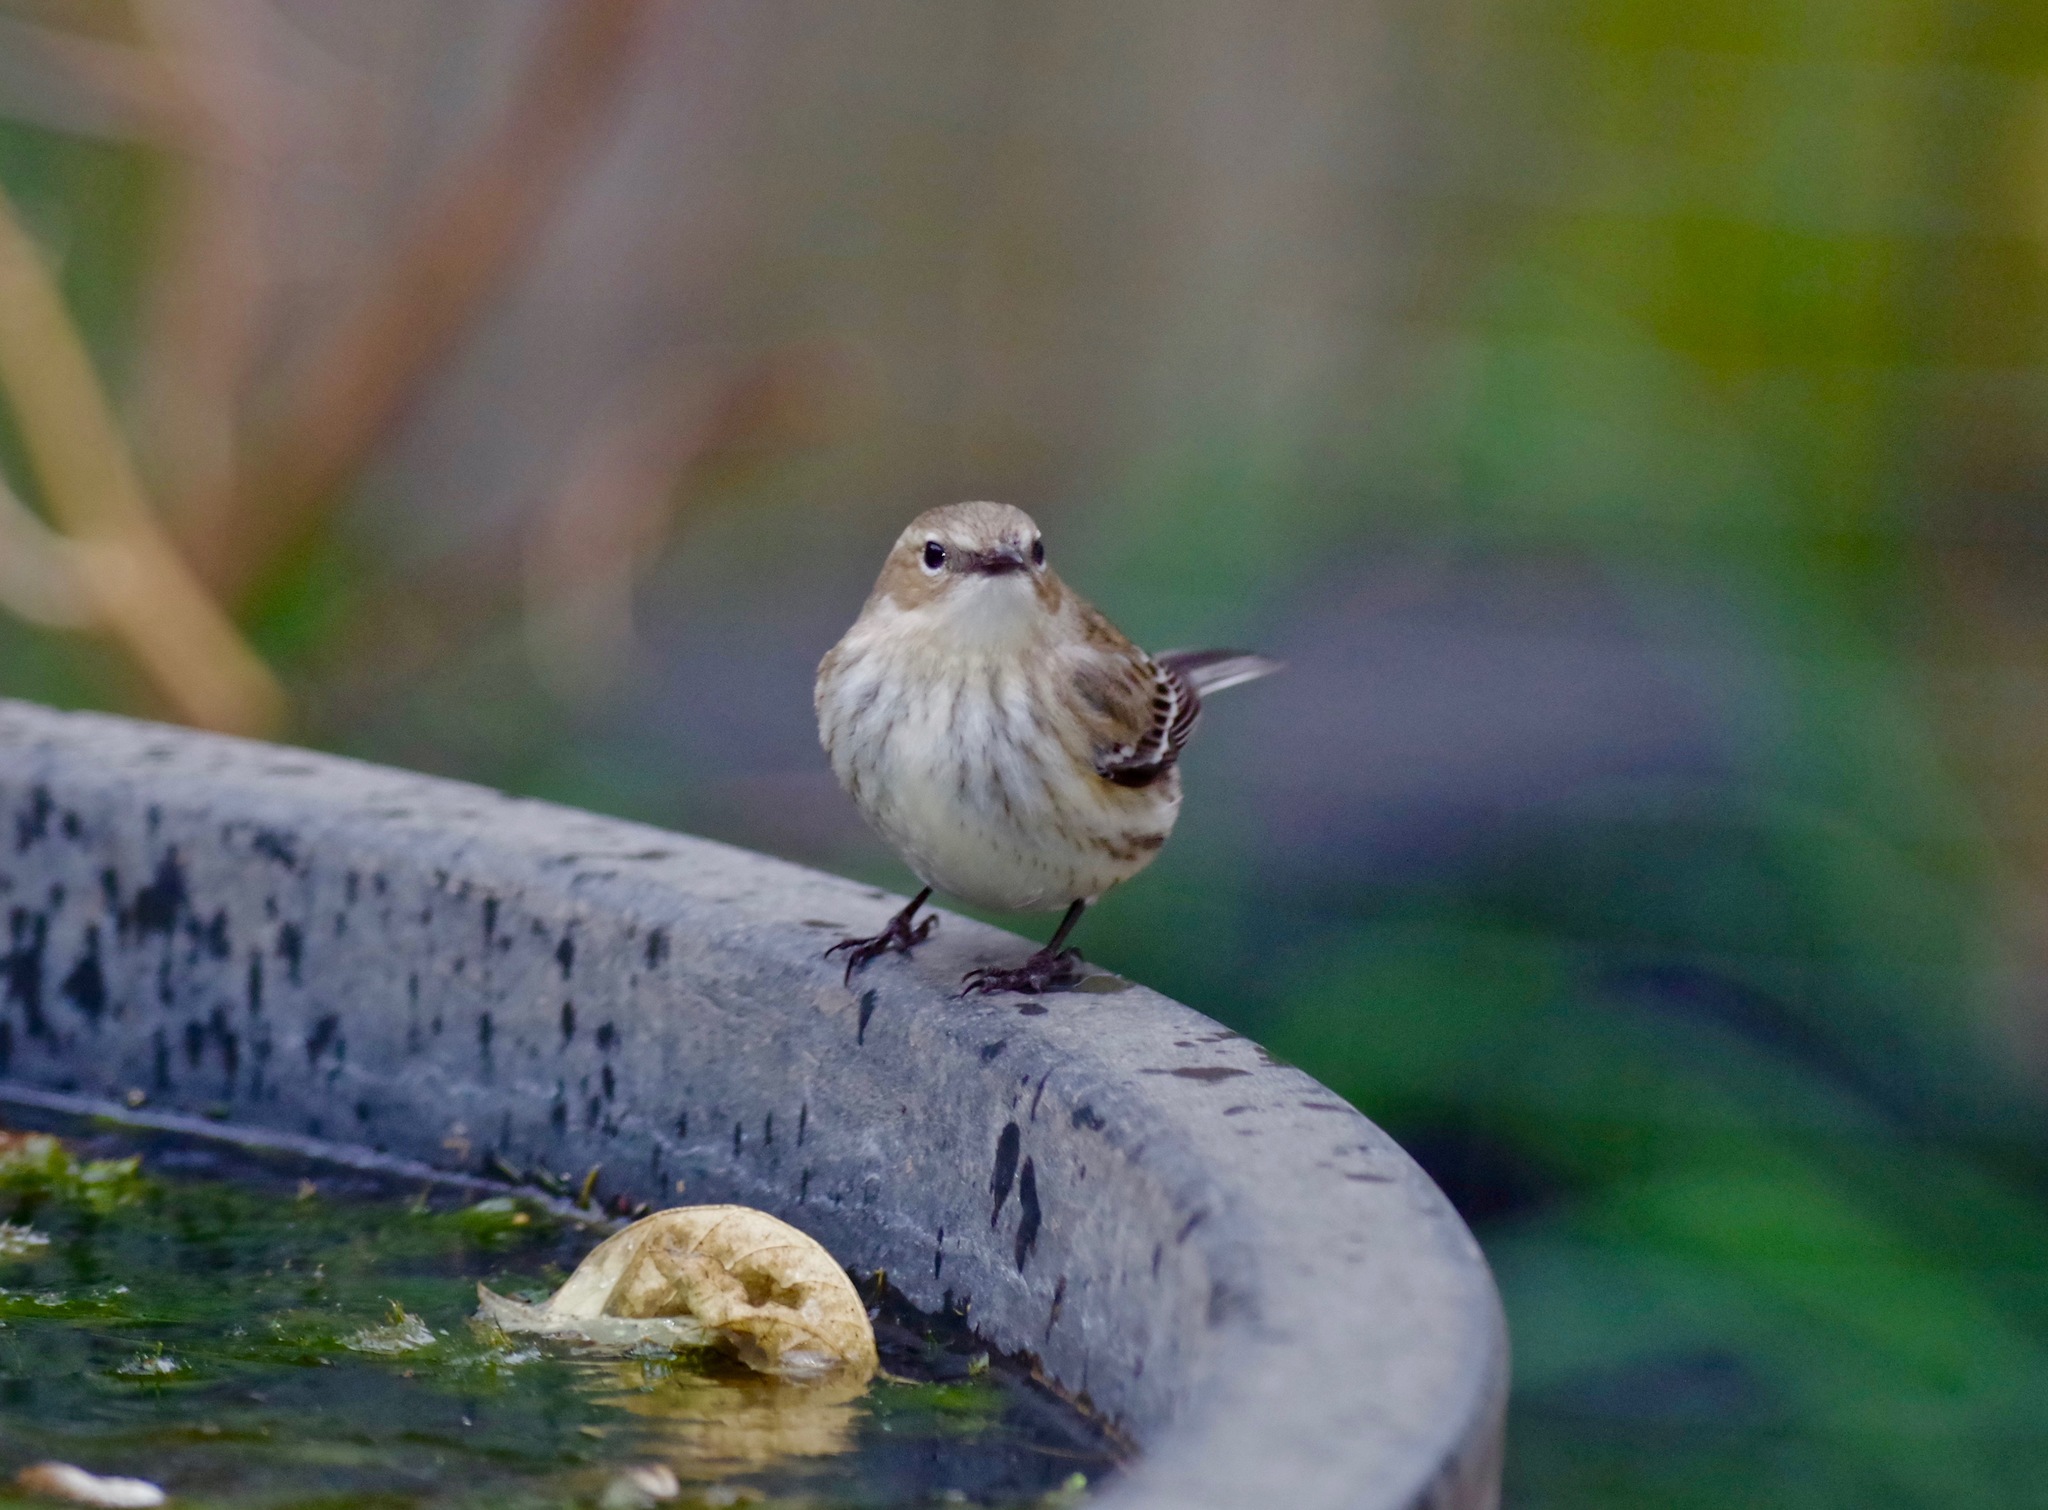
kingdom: Animalia
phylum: Chordata
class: Aves
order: Passeriformes
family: Parulidae
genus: Setophaga
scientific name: Setophaga coronata
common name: Myrtle warbler
